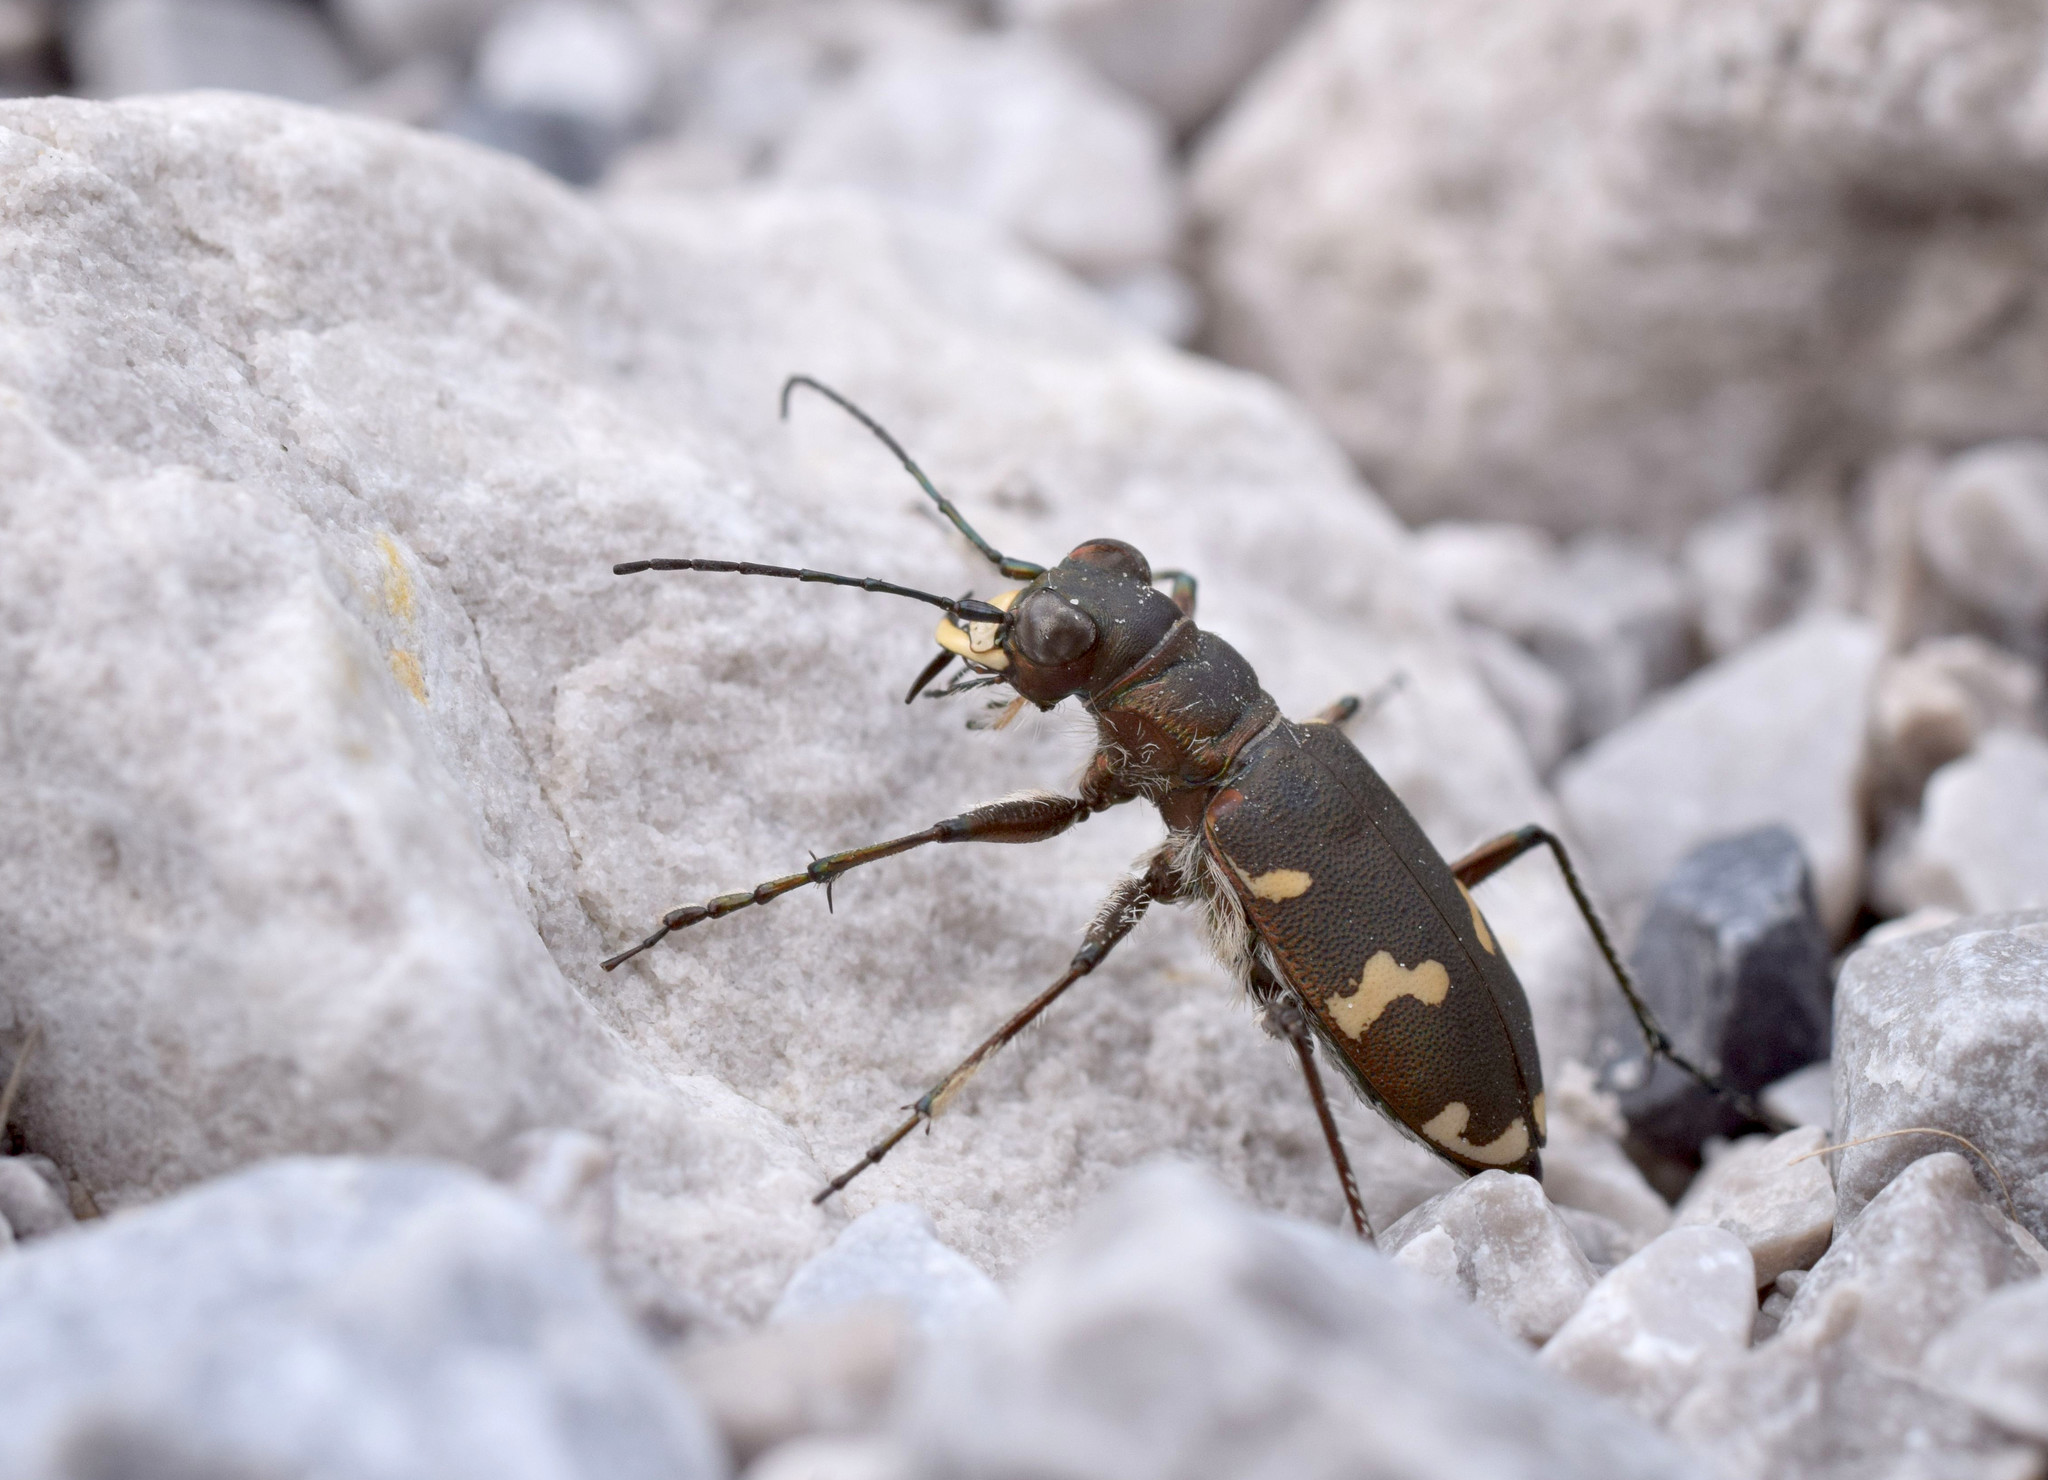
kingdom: Animalia
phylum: Arthropoda
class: Insecta
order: Coleoptera
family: Carabidae
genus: Cicindela
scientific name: Cicindela hybrida
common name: Northern dune tiger beetle
